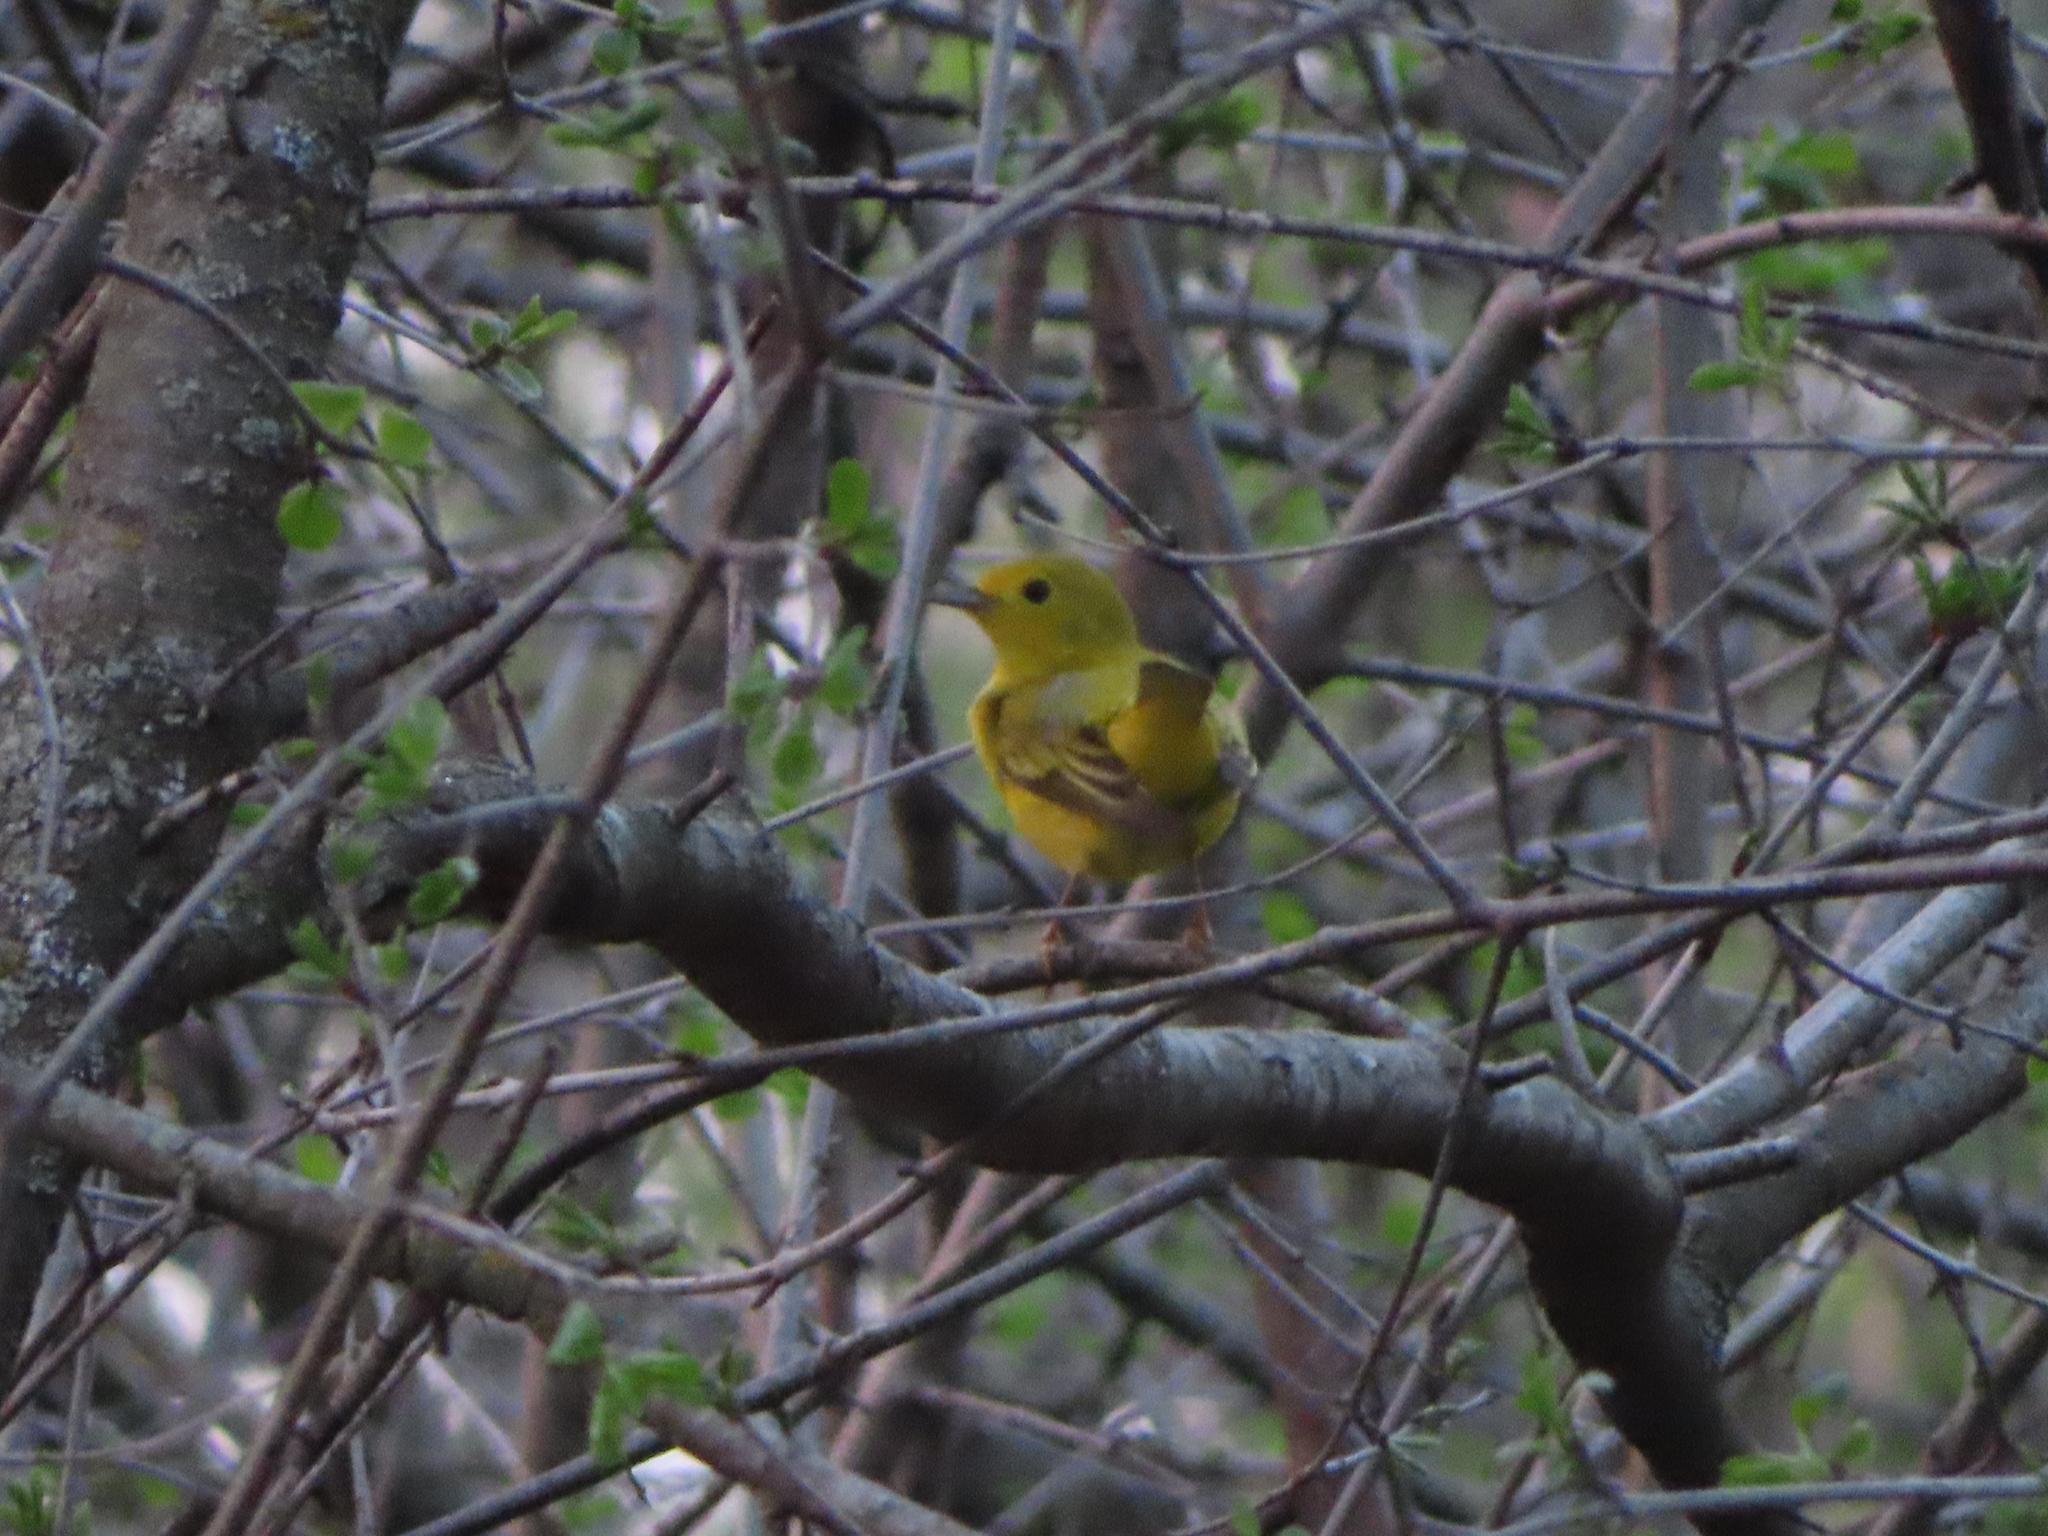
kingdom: Animalia
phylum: Chordata
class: Aves
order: Passeriformes
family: Parulidae
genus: Setophaga
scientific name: Setophaga petechia
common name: Yellow warbler
